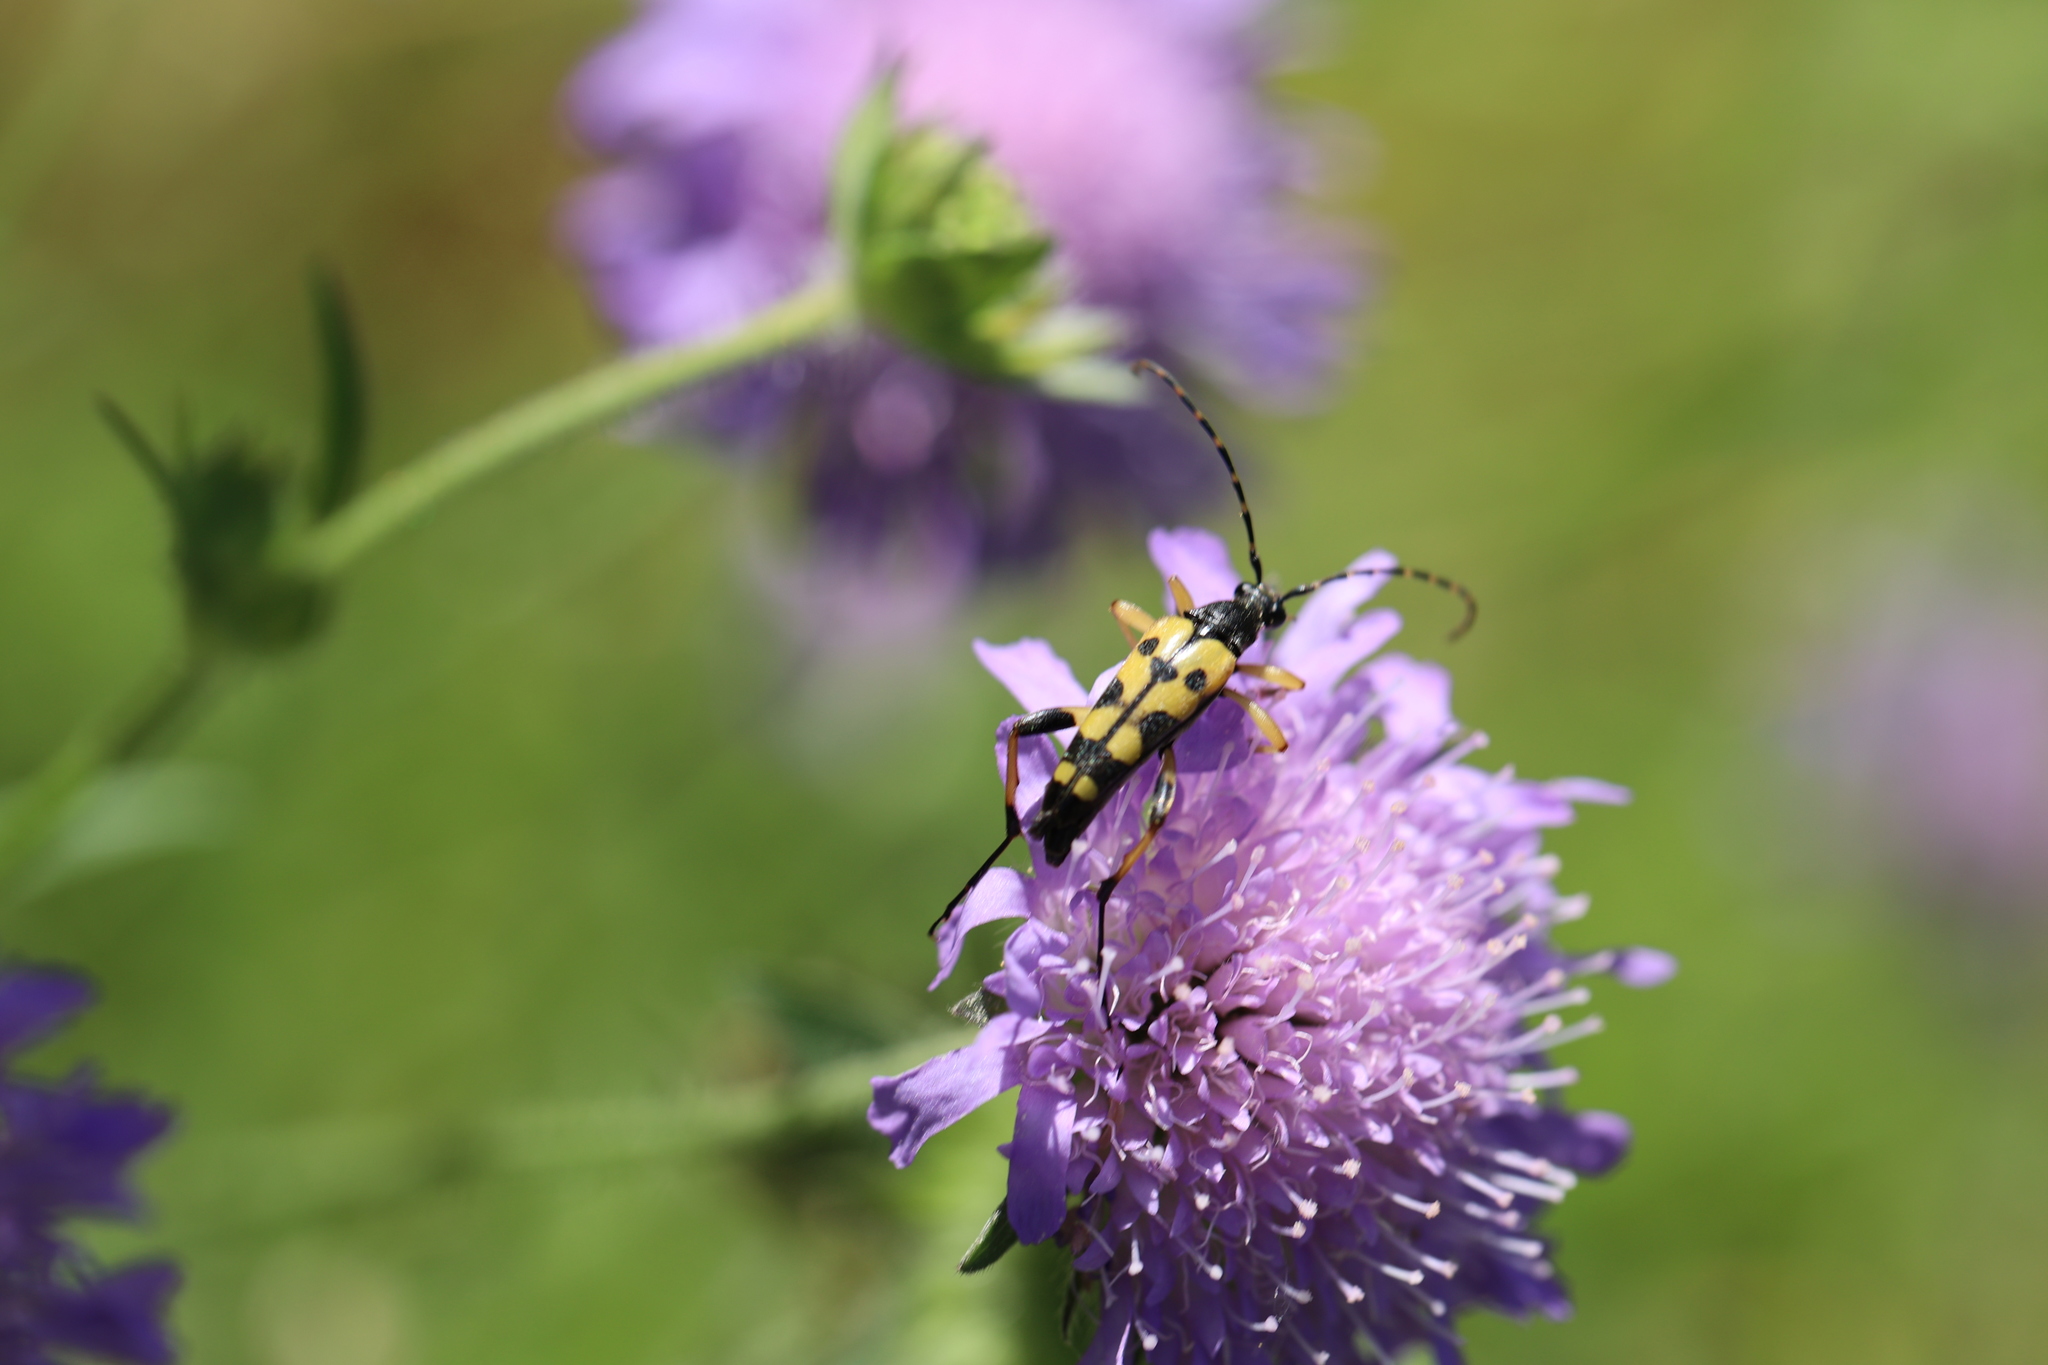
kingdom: Animalia
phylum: Arthropoda
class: Insecta
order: Coleoptera
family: Cerambycidae
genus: Rutpela
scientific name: Rutpela maculata
